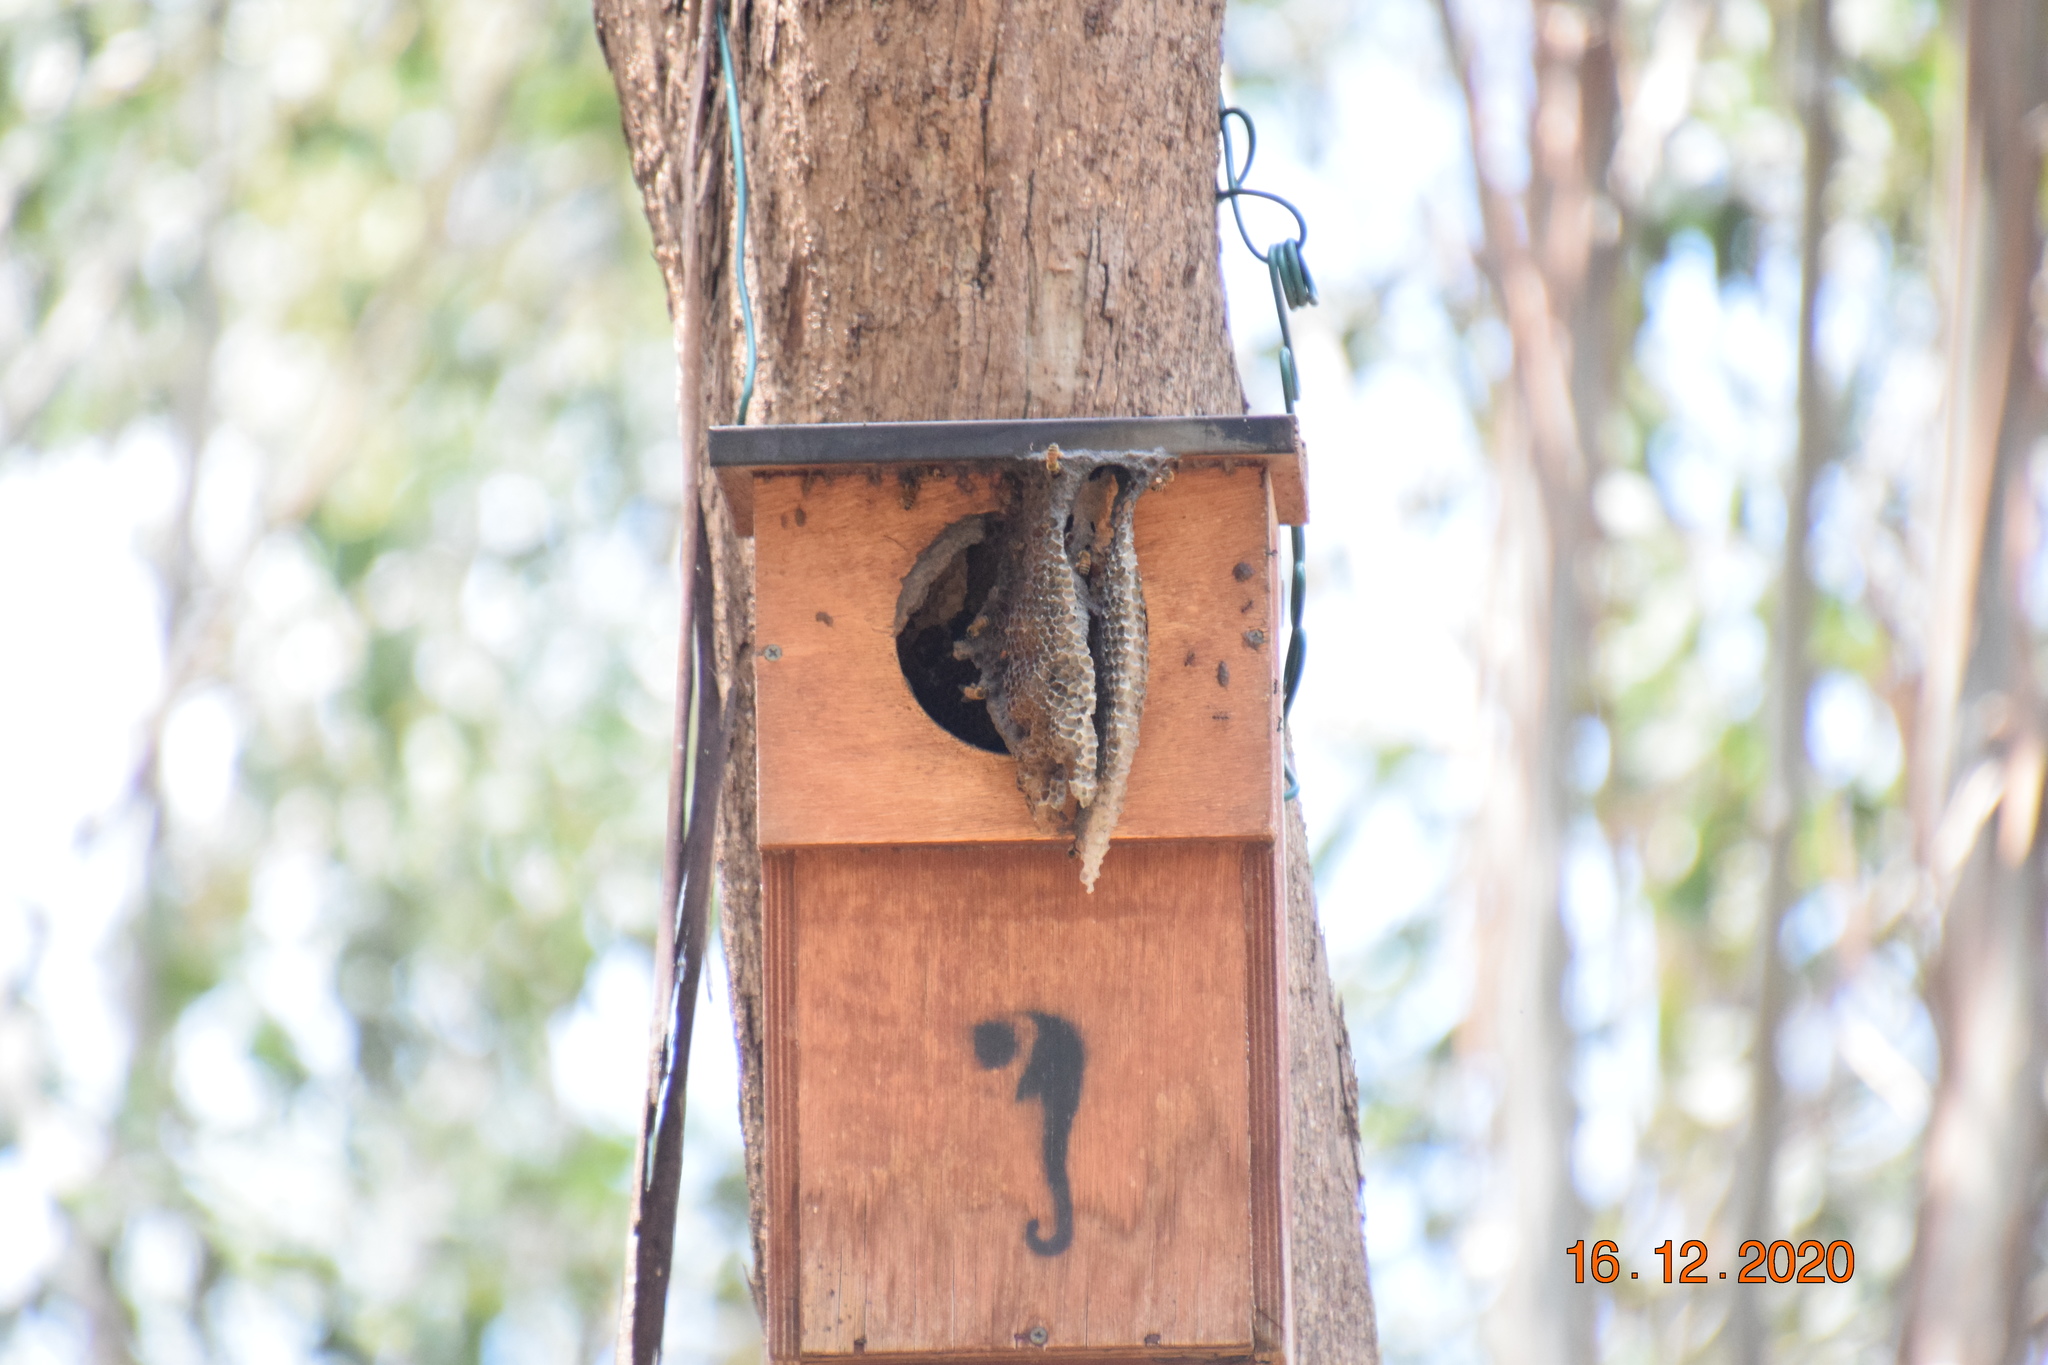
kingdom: Animalia
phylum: Arthropoda
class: Insecta
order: Hymenoptera
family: Apidae
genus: Apis
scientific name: Apis mellifera
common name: Honey bee
